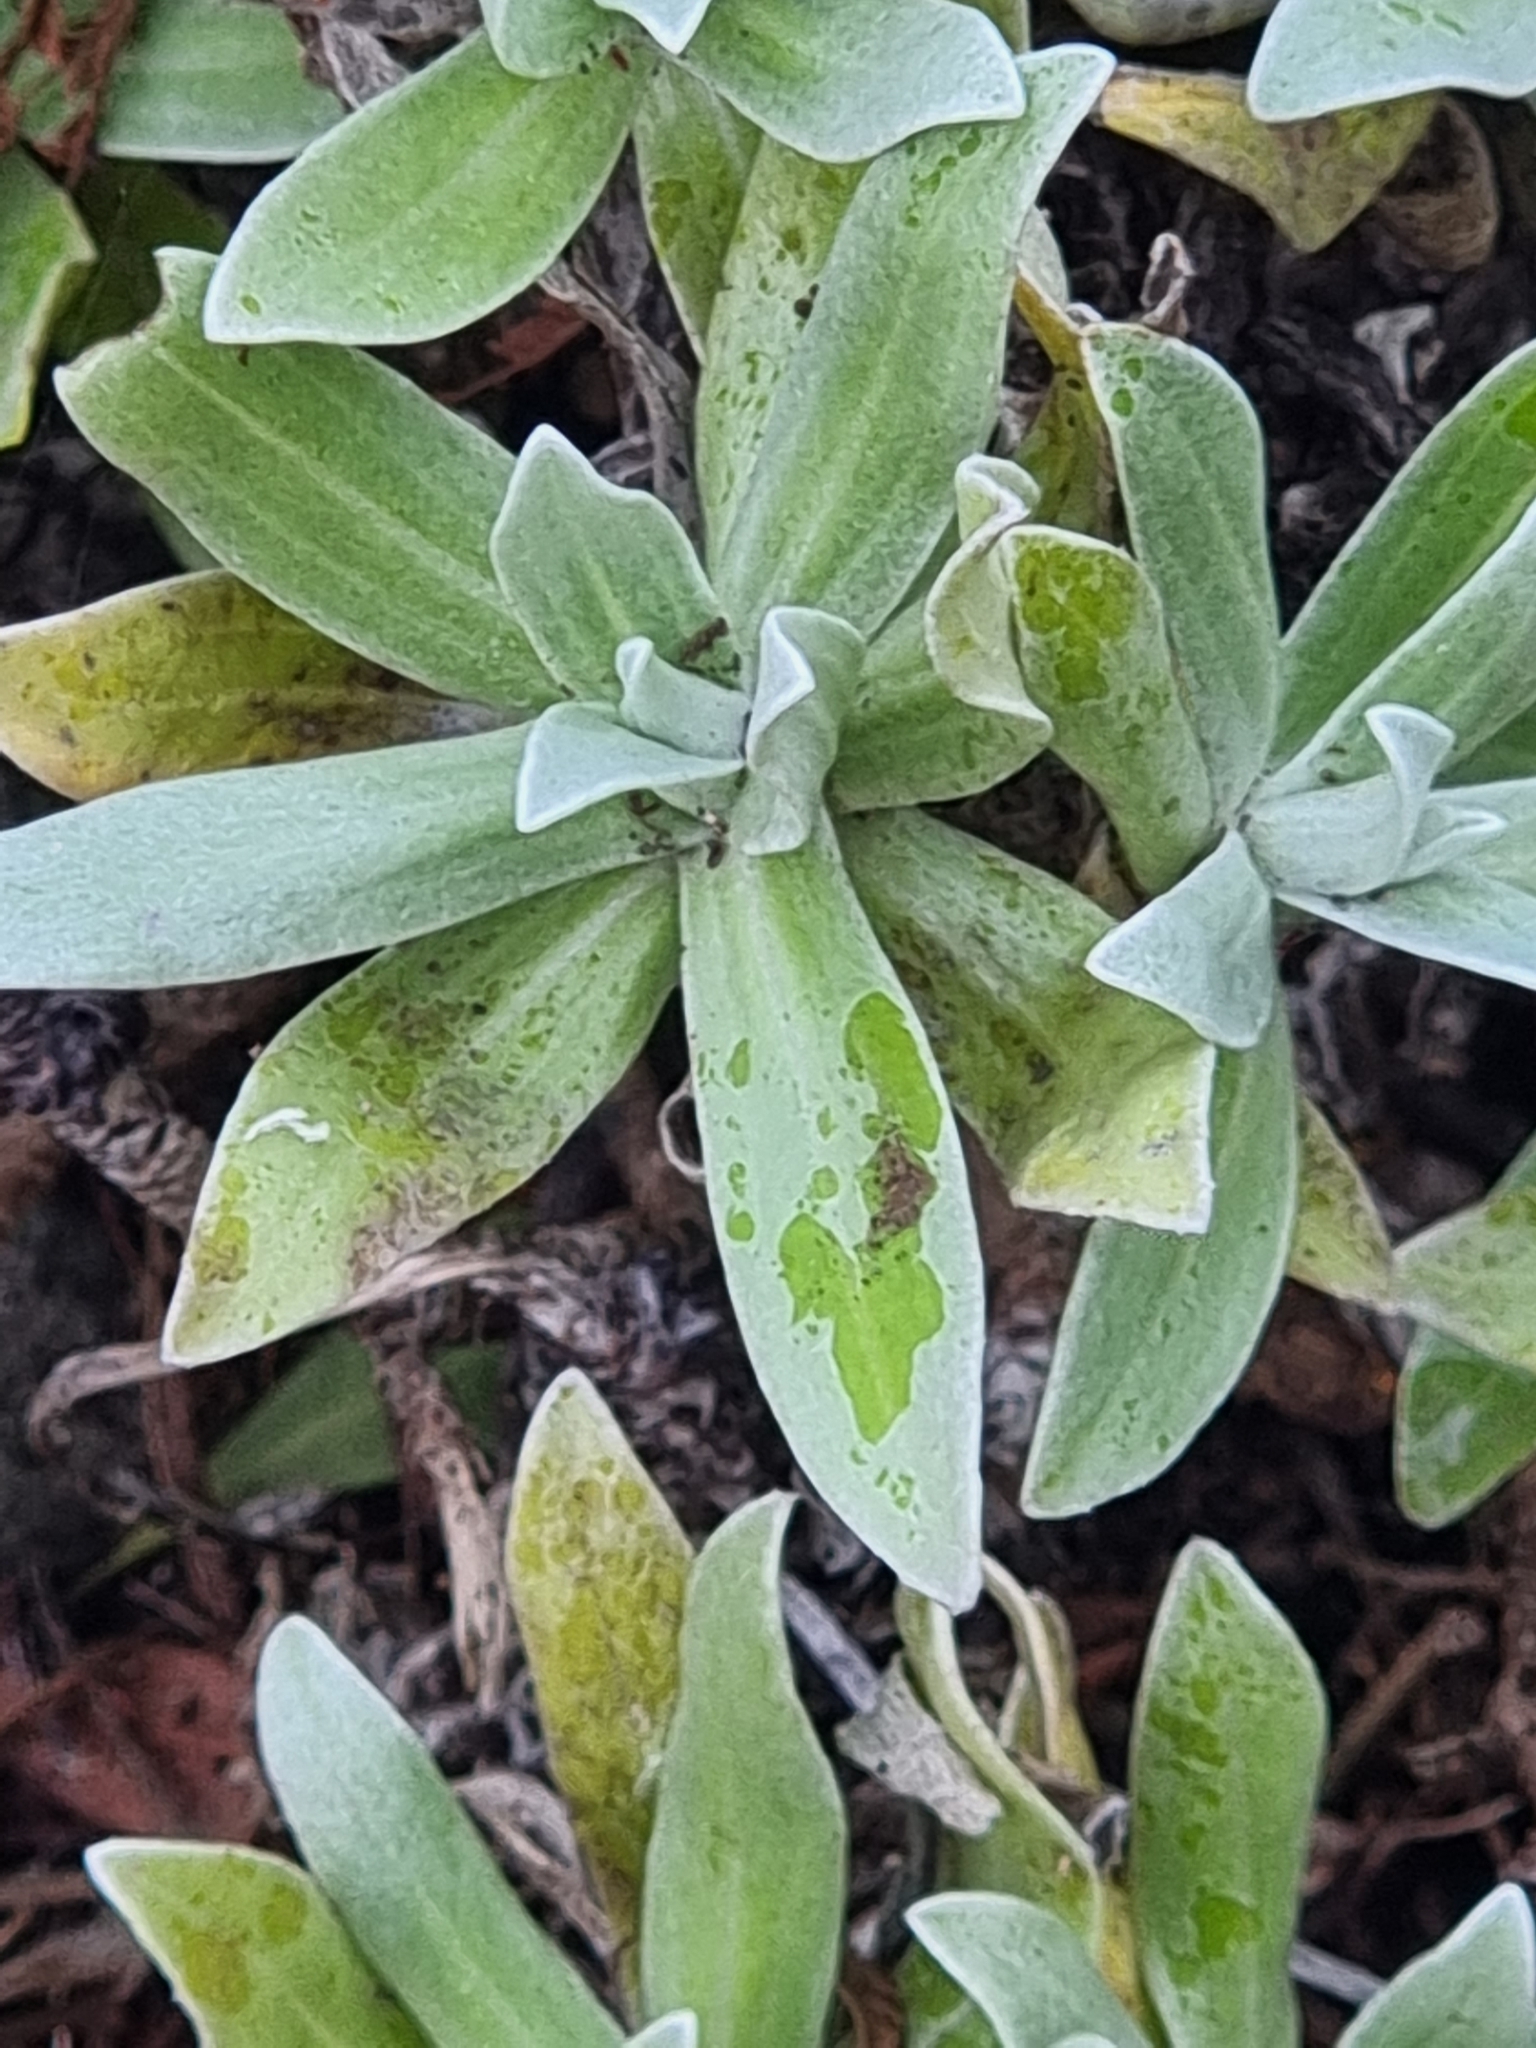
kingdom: Plantae
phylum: Tracheophyta
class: Magnoliopsida
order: Asterales
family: Asteraceae
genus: Helichrysum
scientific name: Helichrysum devium
